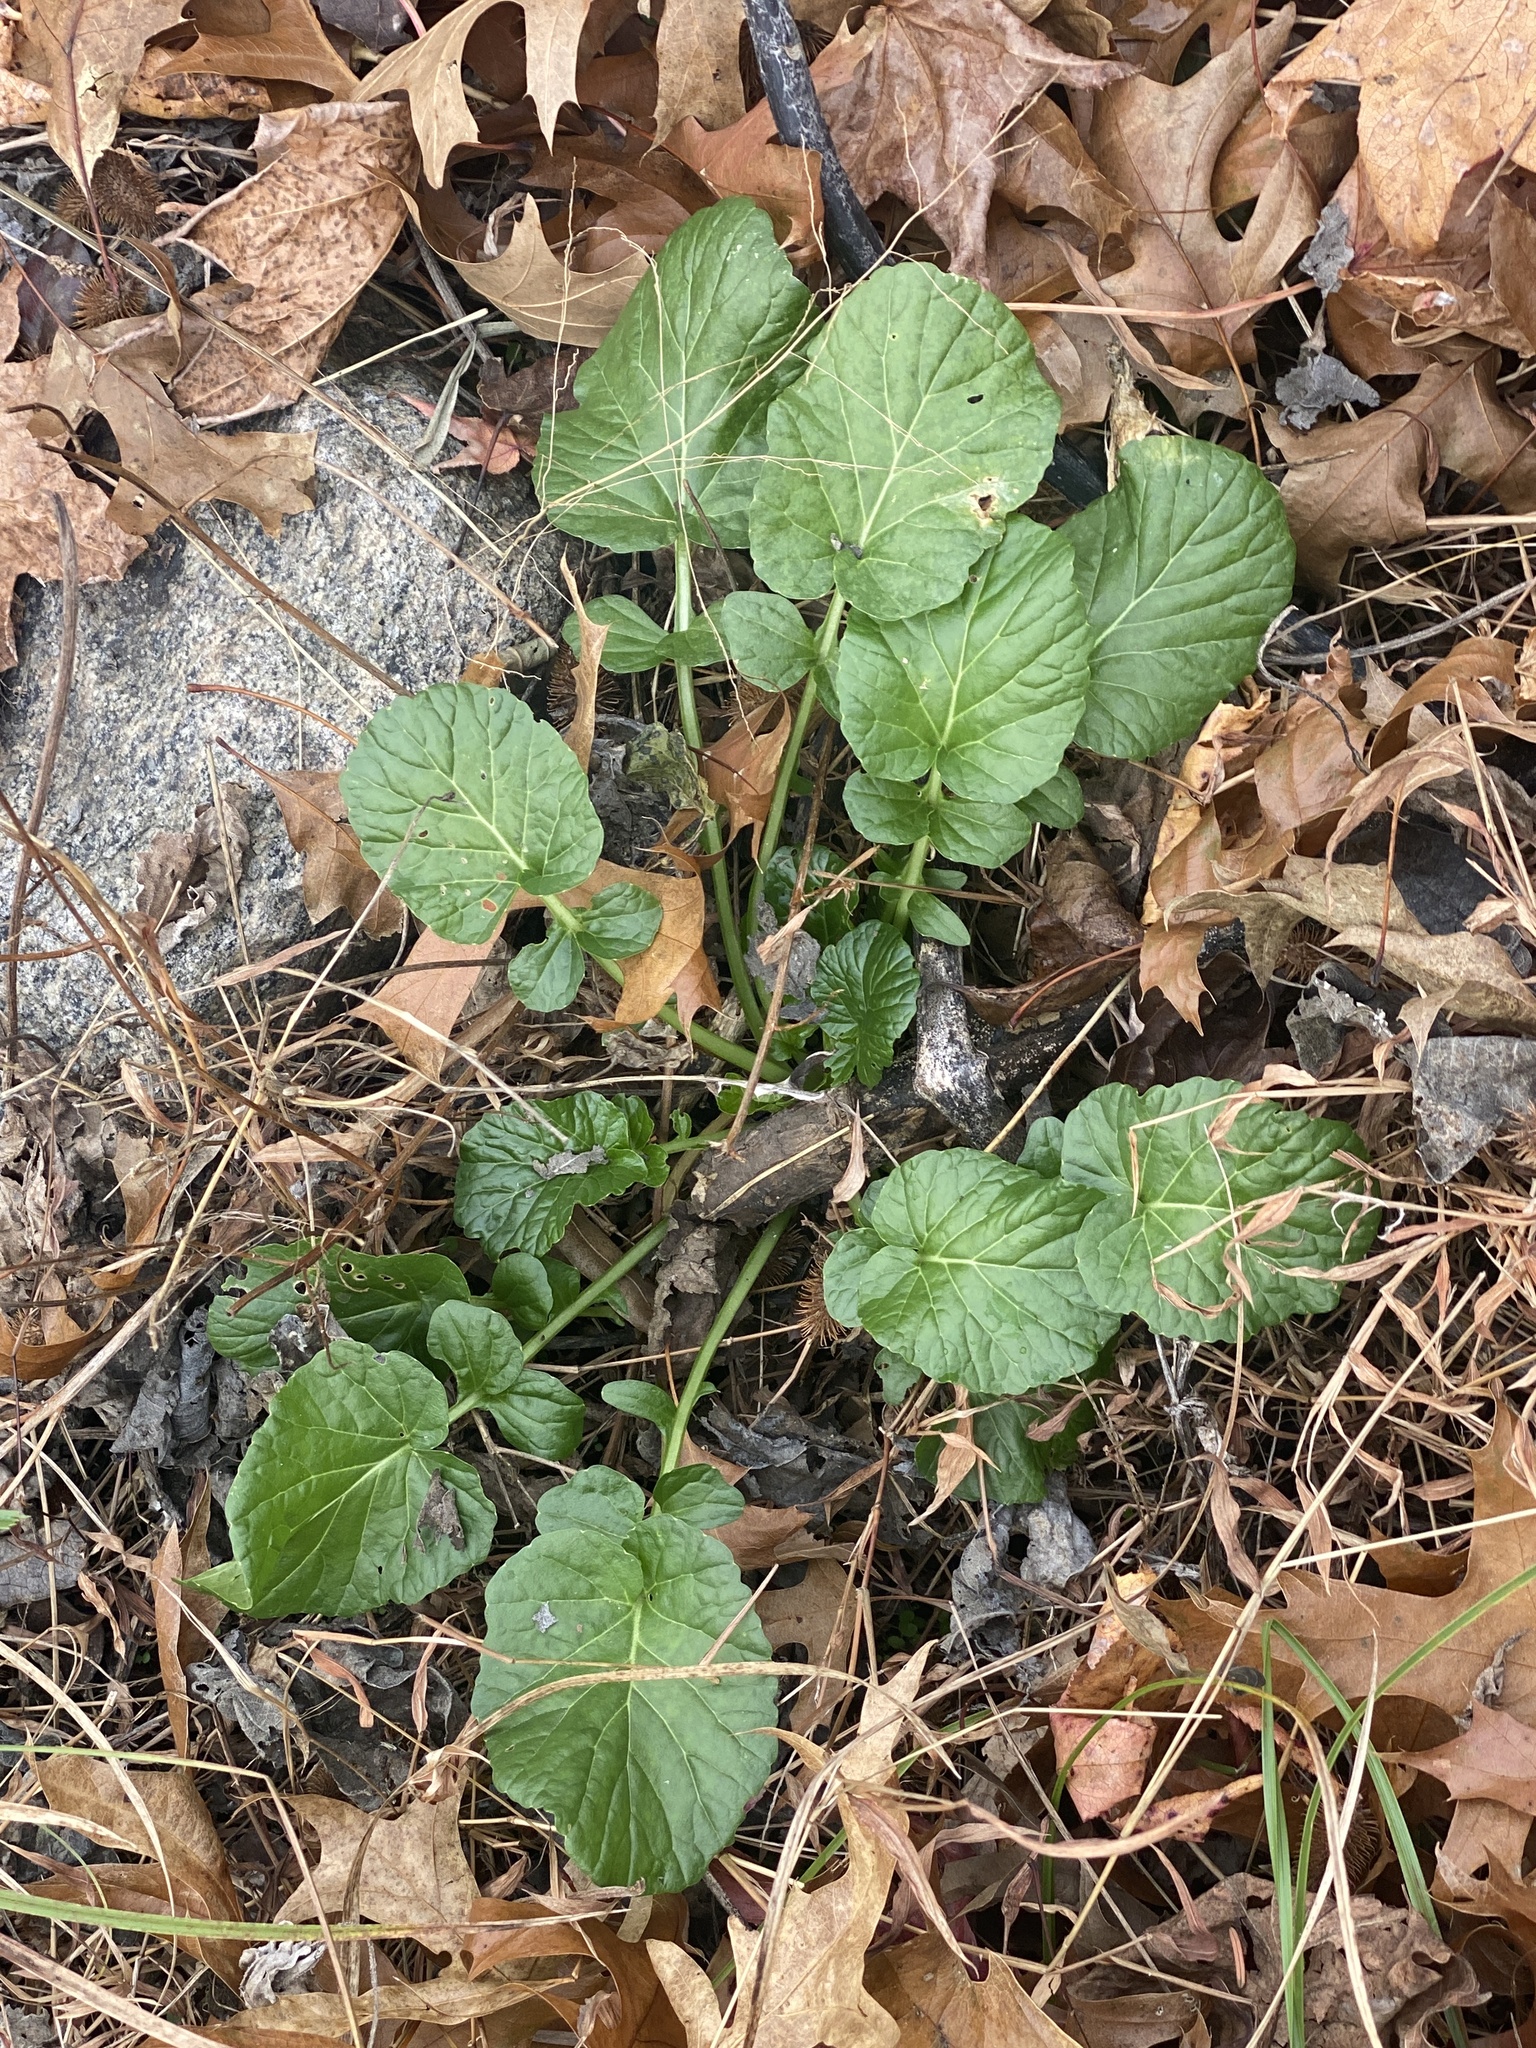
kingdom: Plantae
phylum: Tracheophyta
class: Magnoliopsida
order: Brassicales
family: Brassicaceae
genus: Barbarea
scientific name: Barbarea vulgaris
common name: Cressy-greens
